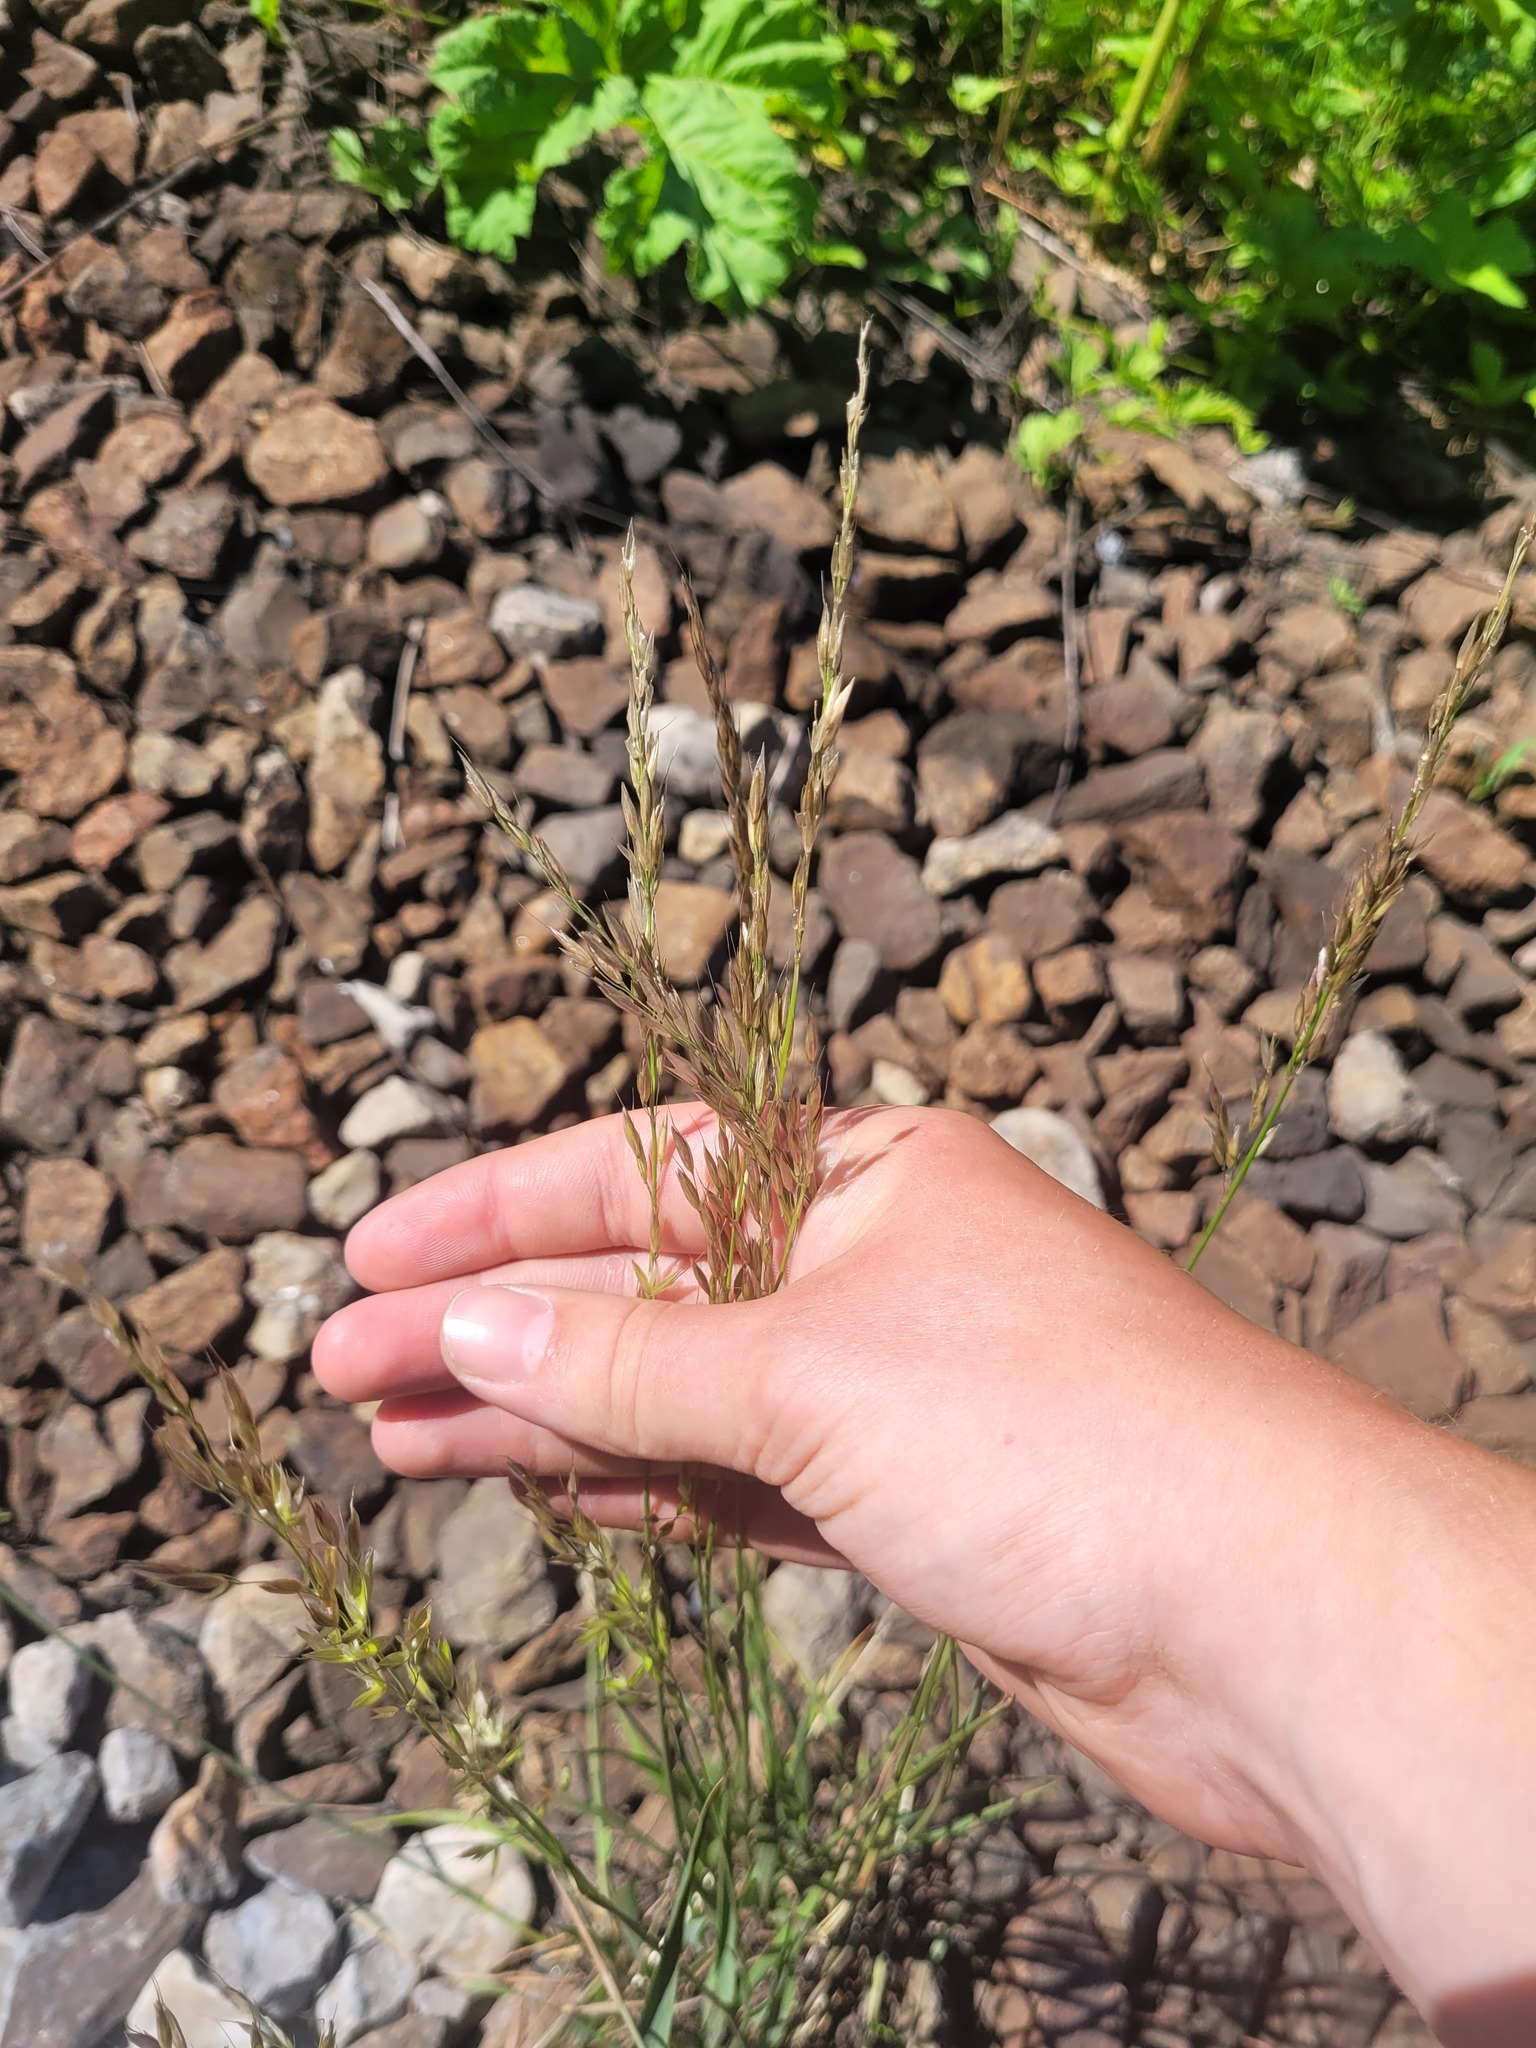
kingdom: Plantae
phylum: Tracheophyta
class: Liliopsida
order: Poales
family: Poaceae
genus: Arrhenatherum
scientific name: Arrhenatherum elatius
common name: Tall oatgrass
